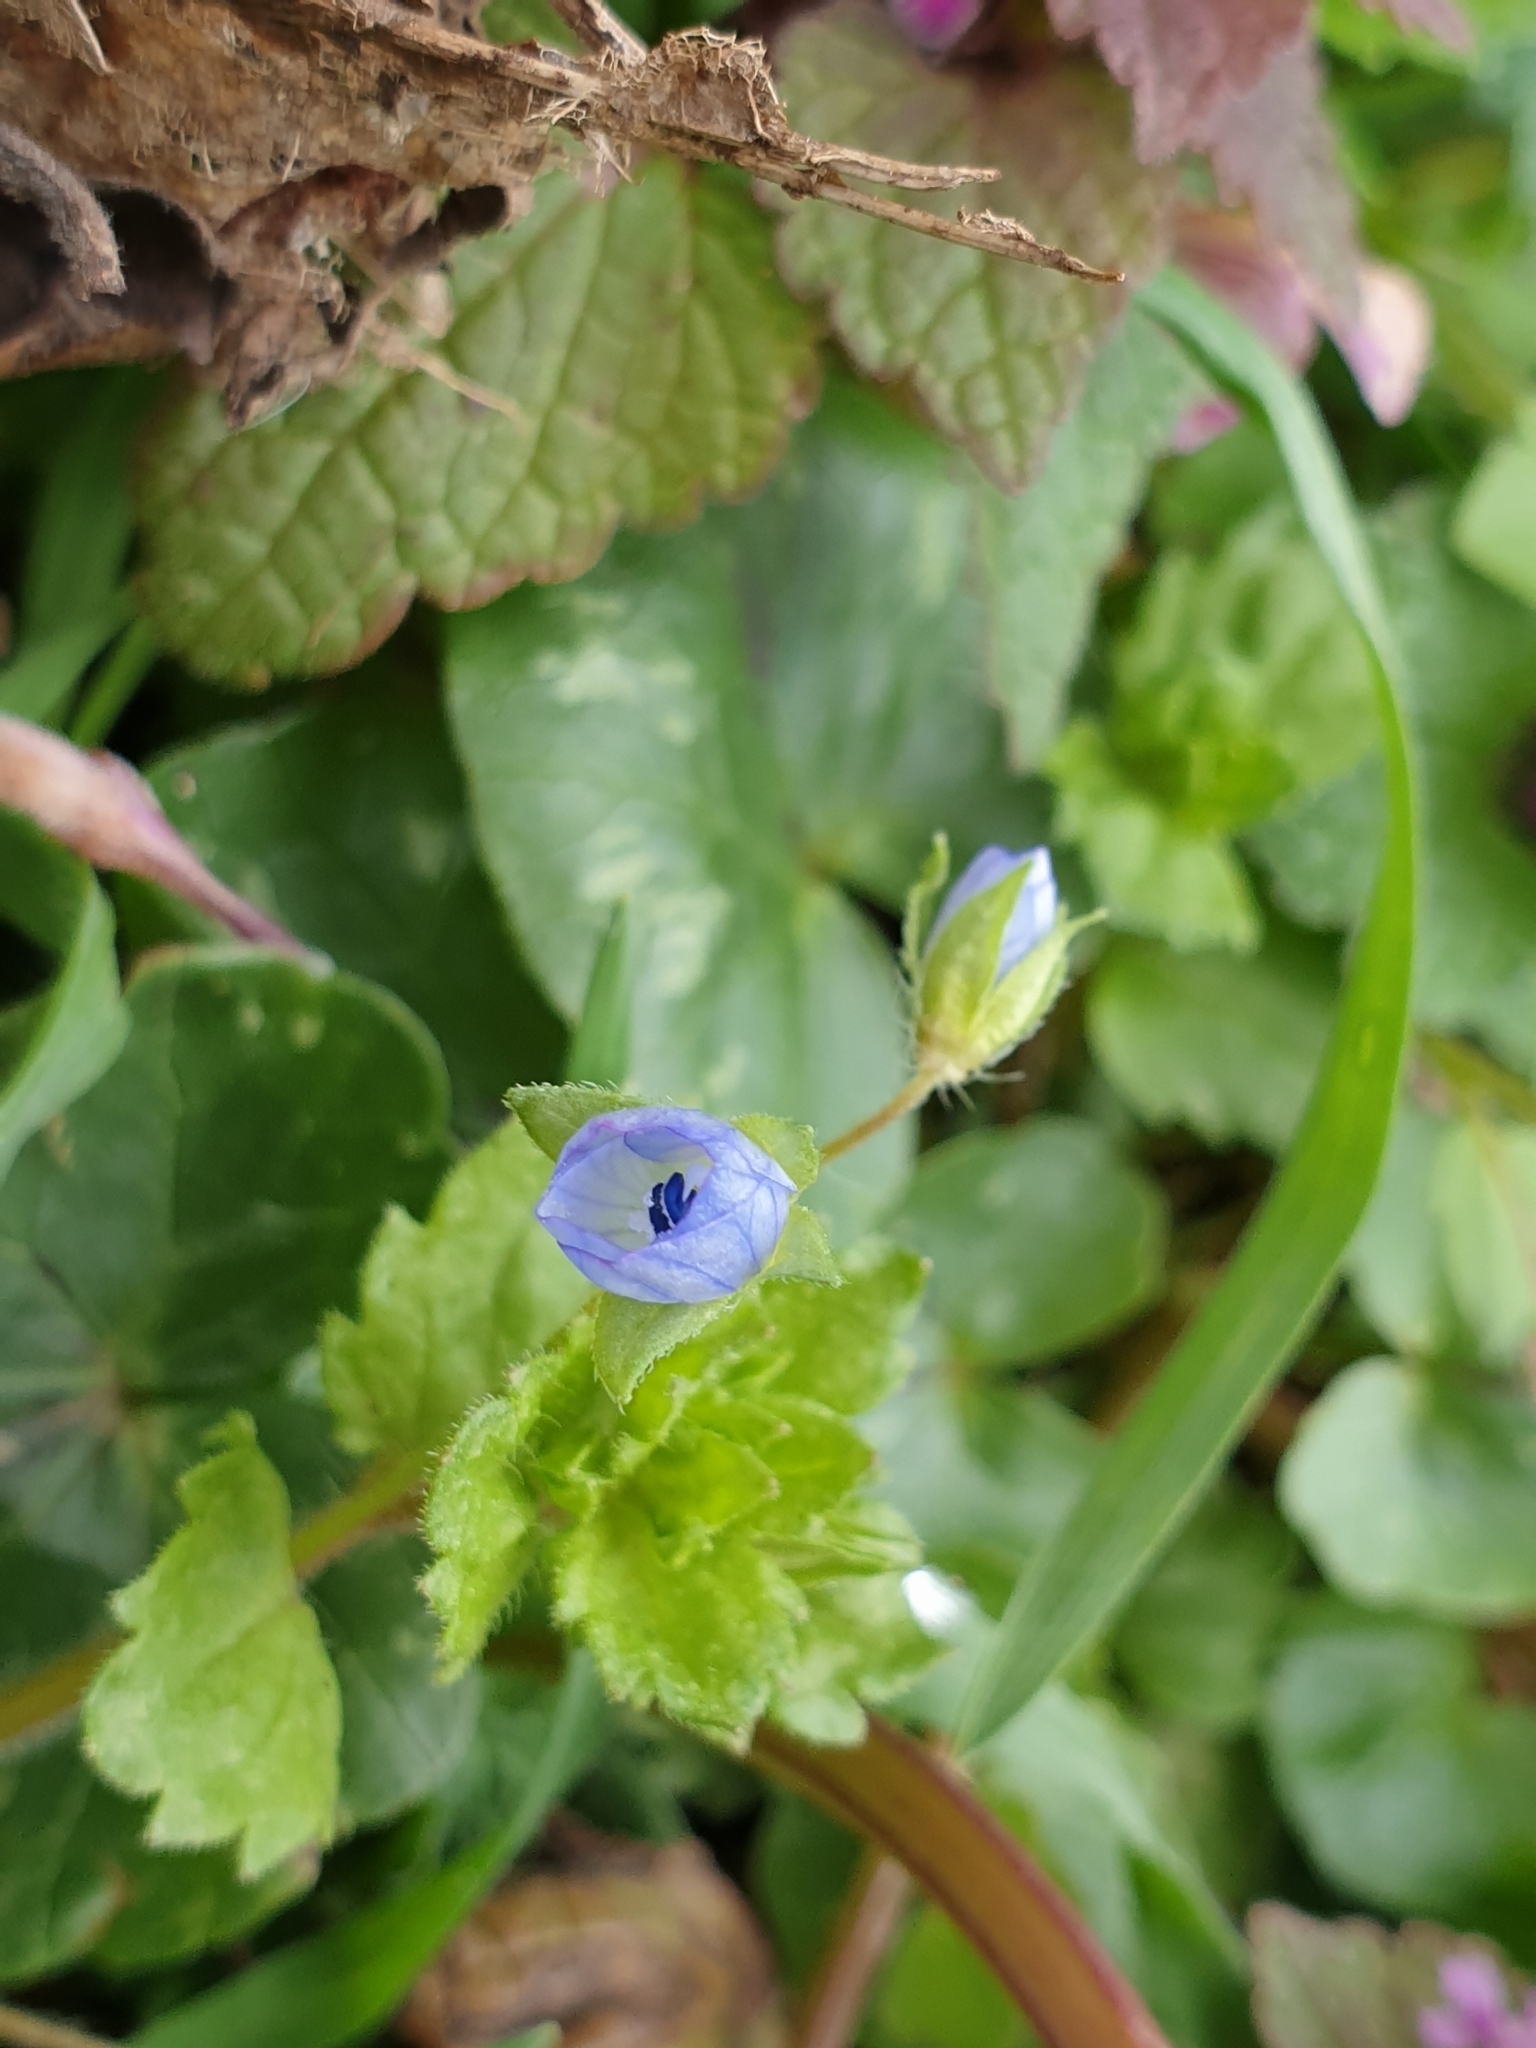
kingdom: Plantae
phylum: Tracheophyta
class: Magnoliopsida
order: Lamiales
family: Plantaginaceae
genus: Veronica
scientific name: Veronica persica
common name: Common field-speedwell
